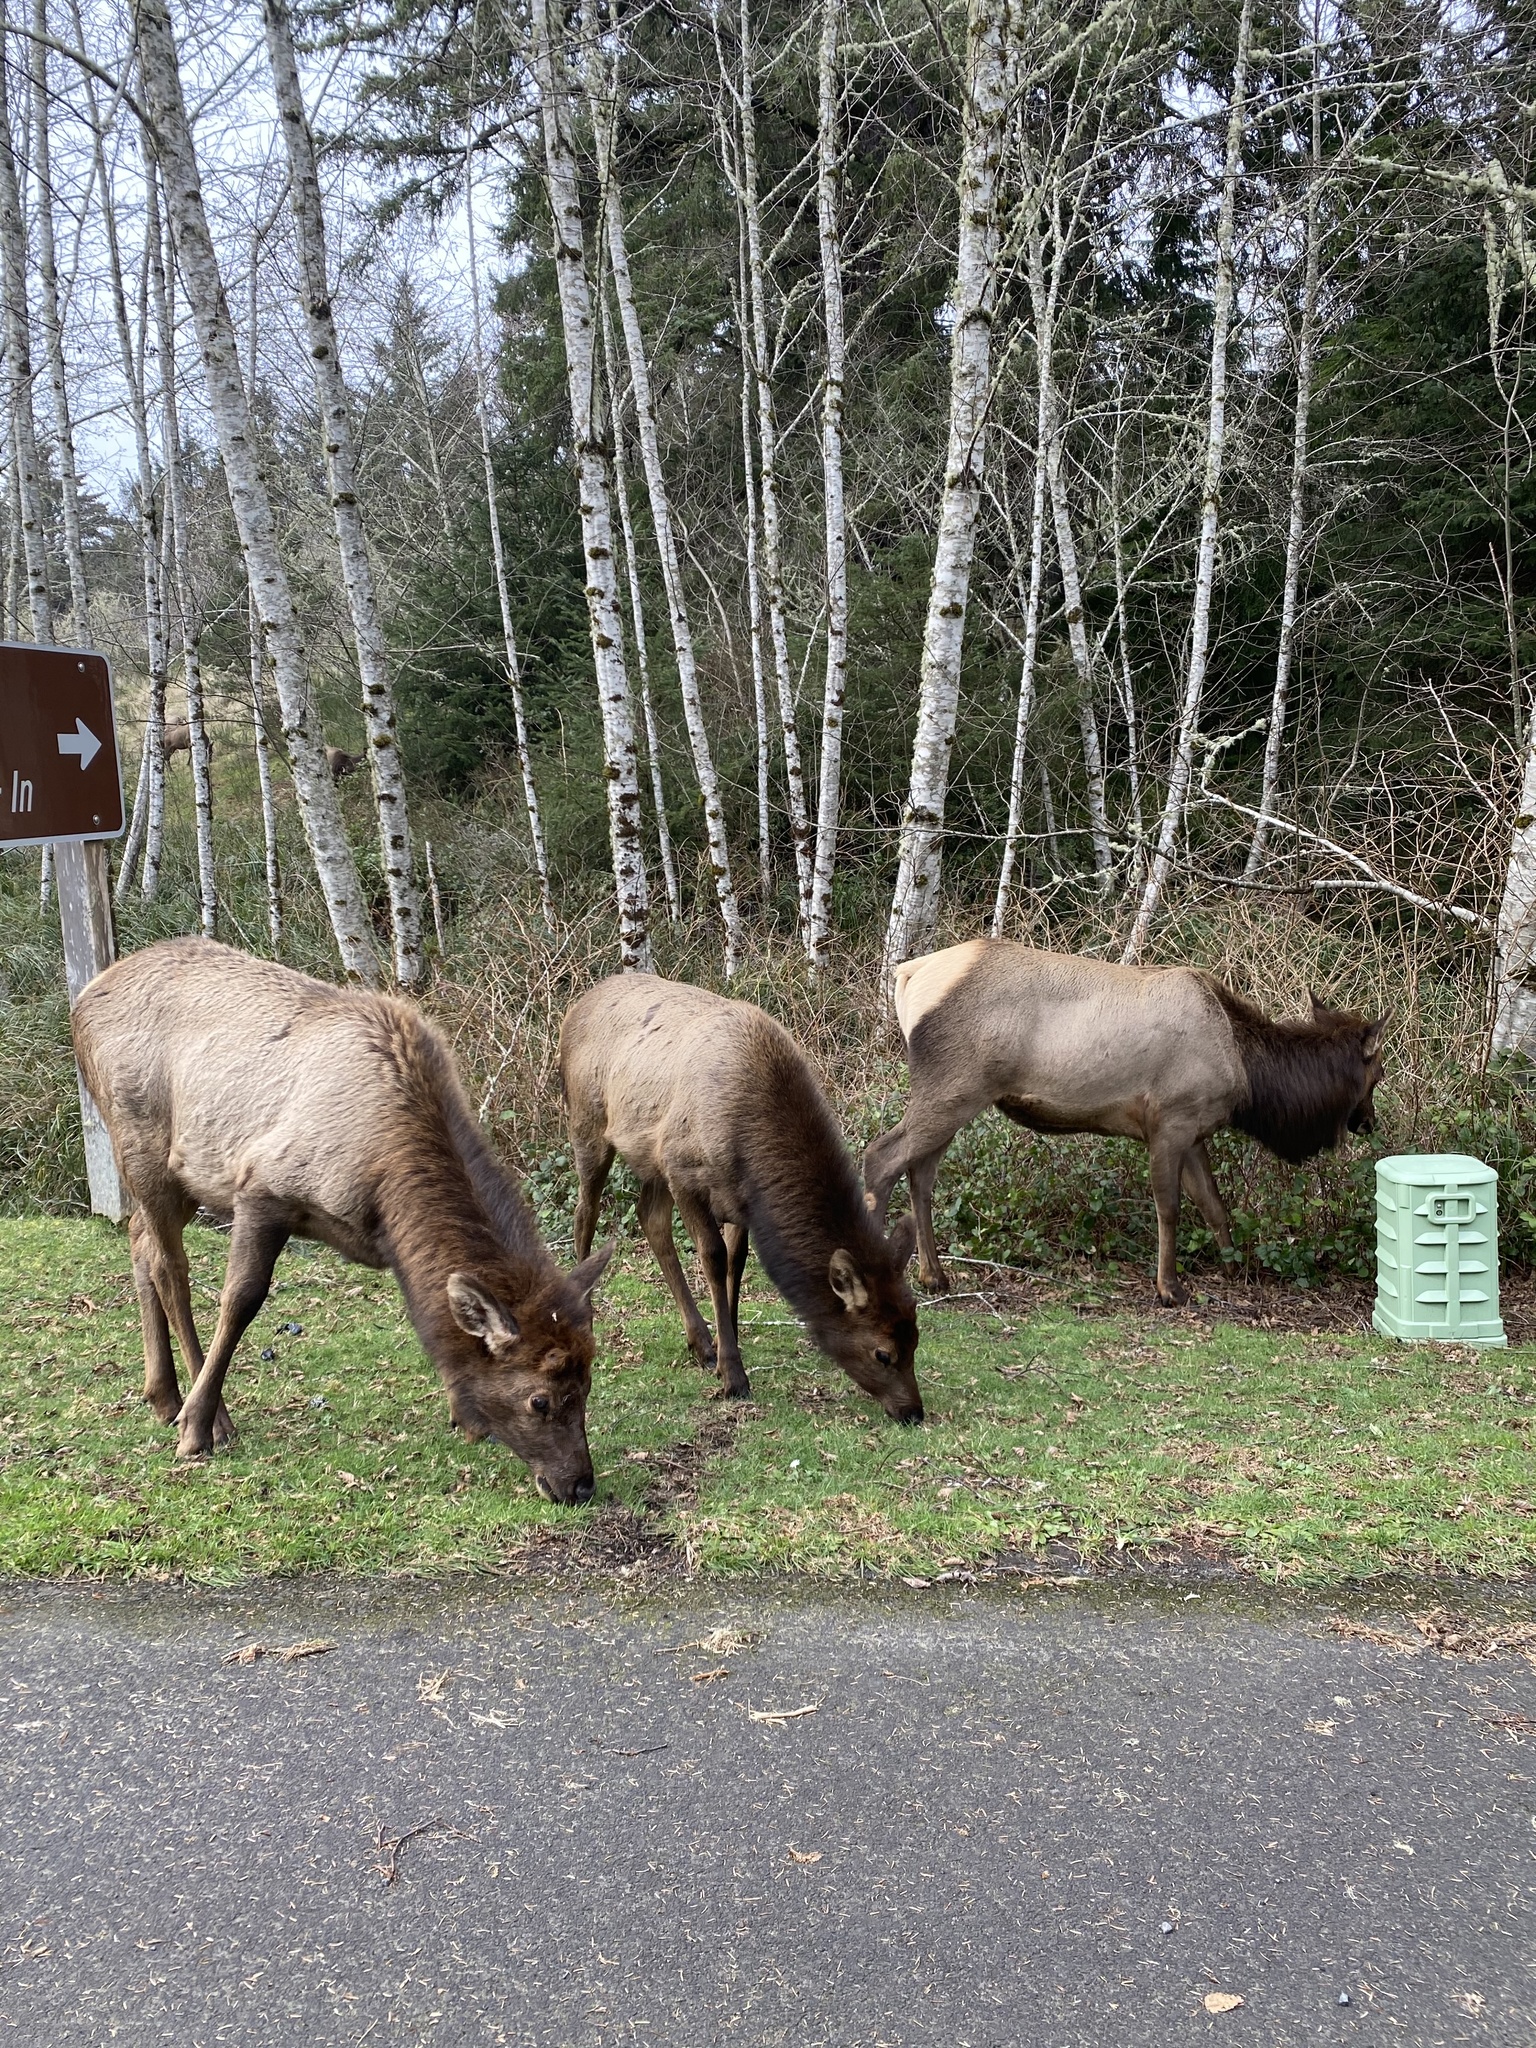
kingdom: Animalia
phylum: Chordata
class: Mammalia
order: Artiodactyla
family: Cervidae
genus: Cervus
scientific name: Cervus elaphus
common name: Red deer
